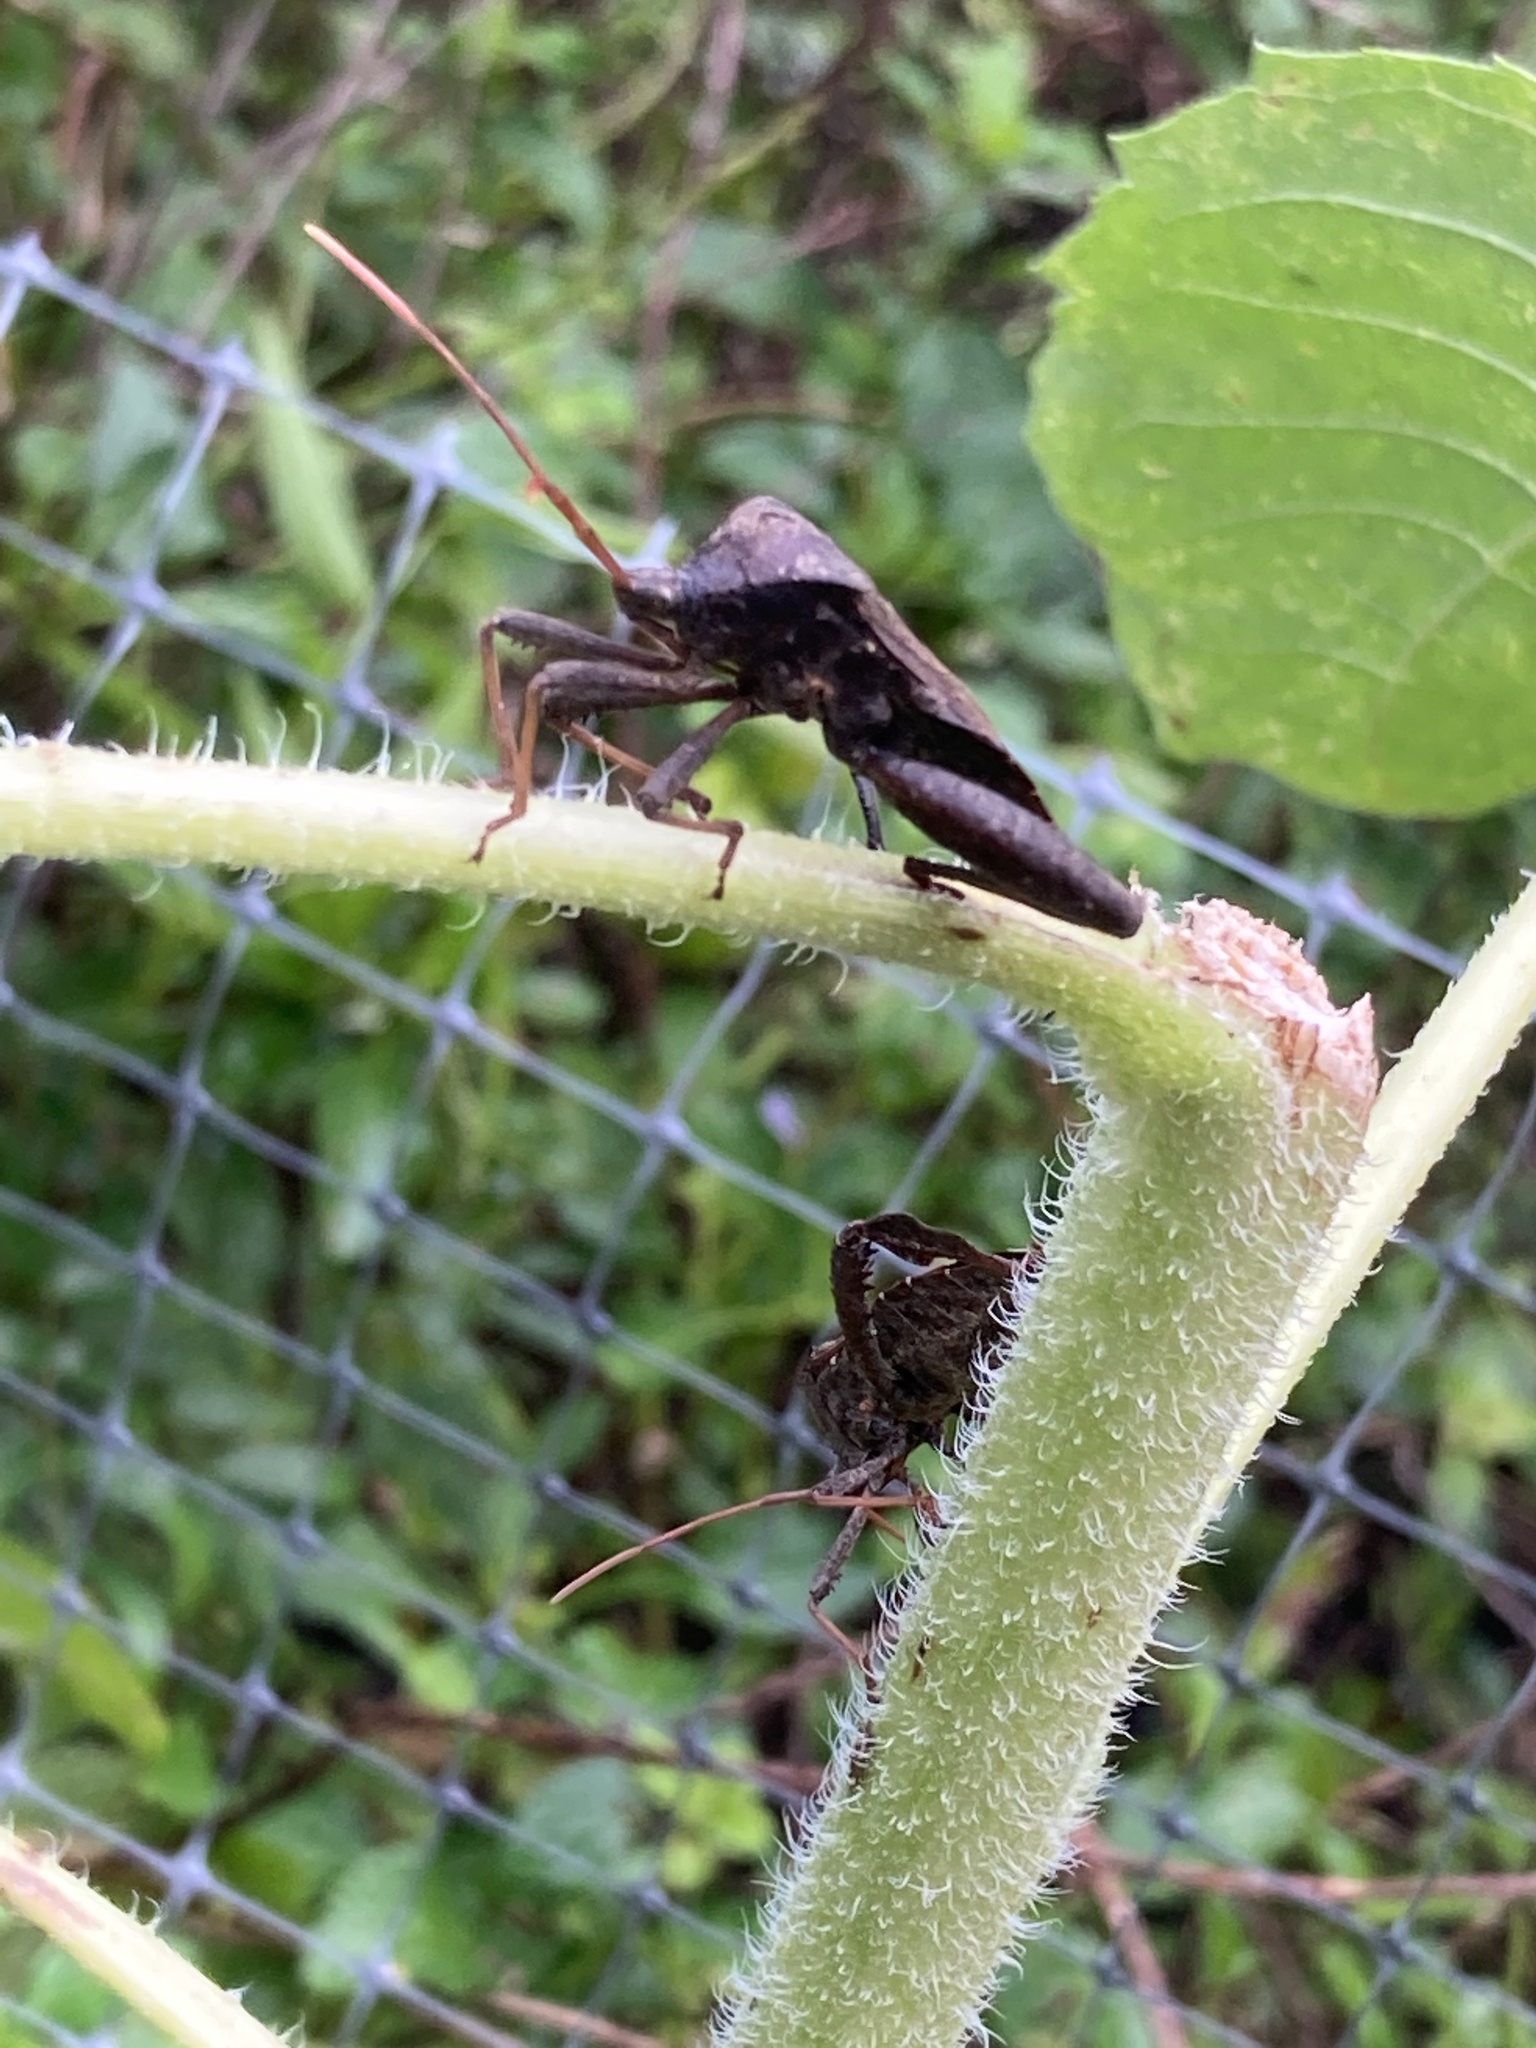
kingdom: Animalia
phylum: Arthropoda
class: Insecta
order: Hemiptera
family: Coreidae
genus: Acanthocephala
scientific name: Acanthocephala femorata
